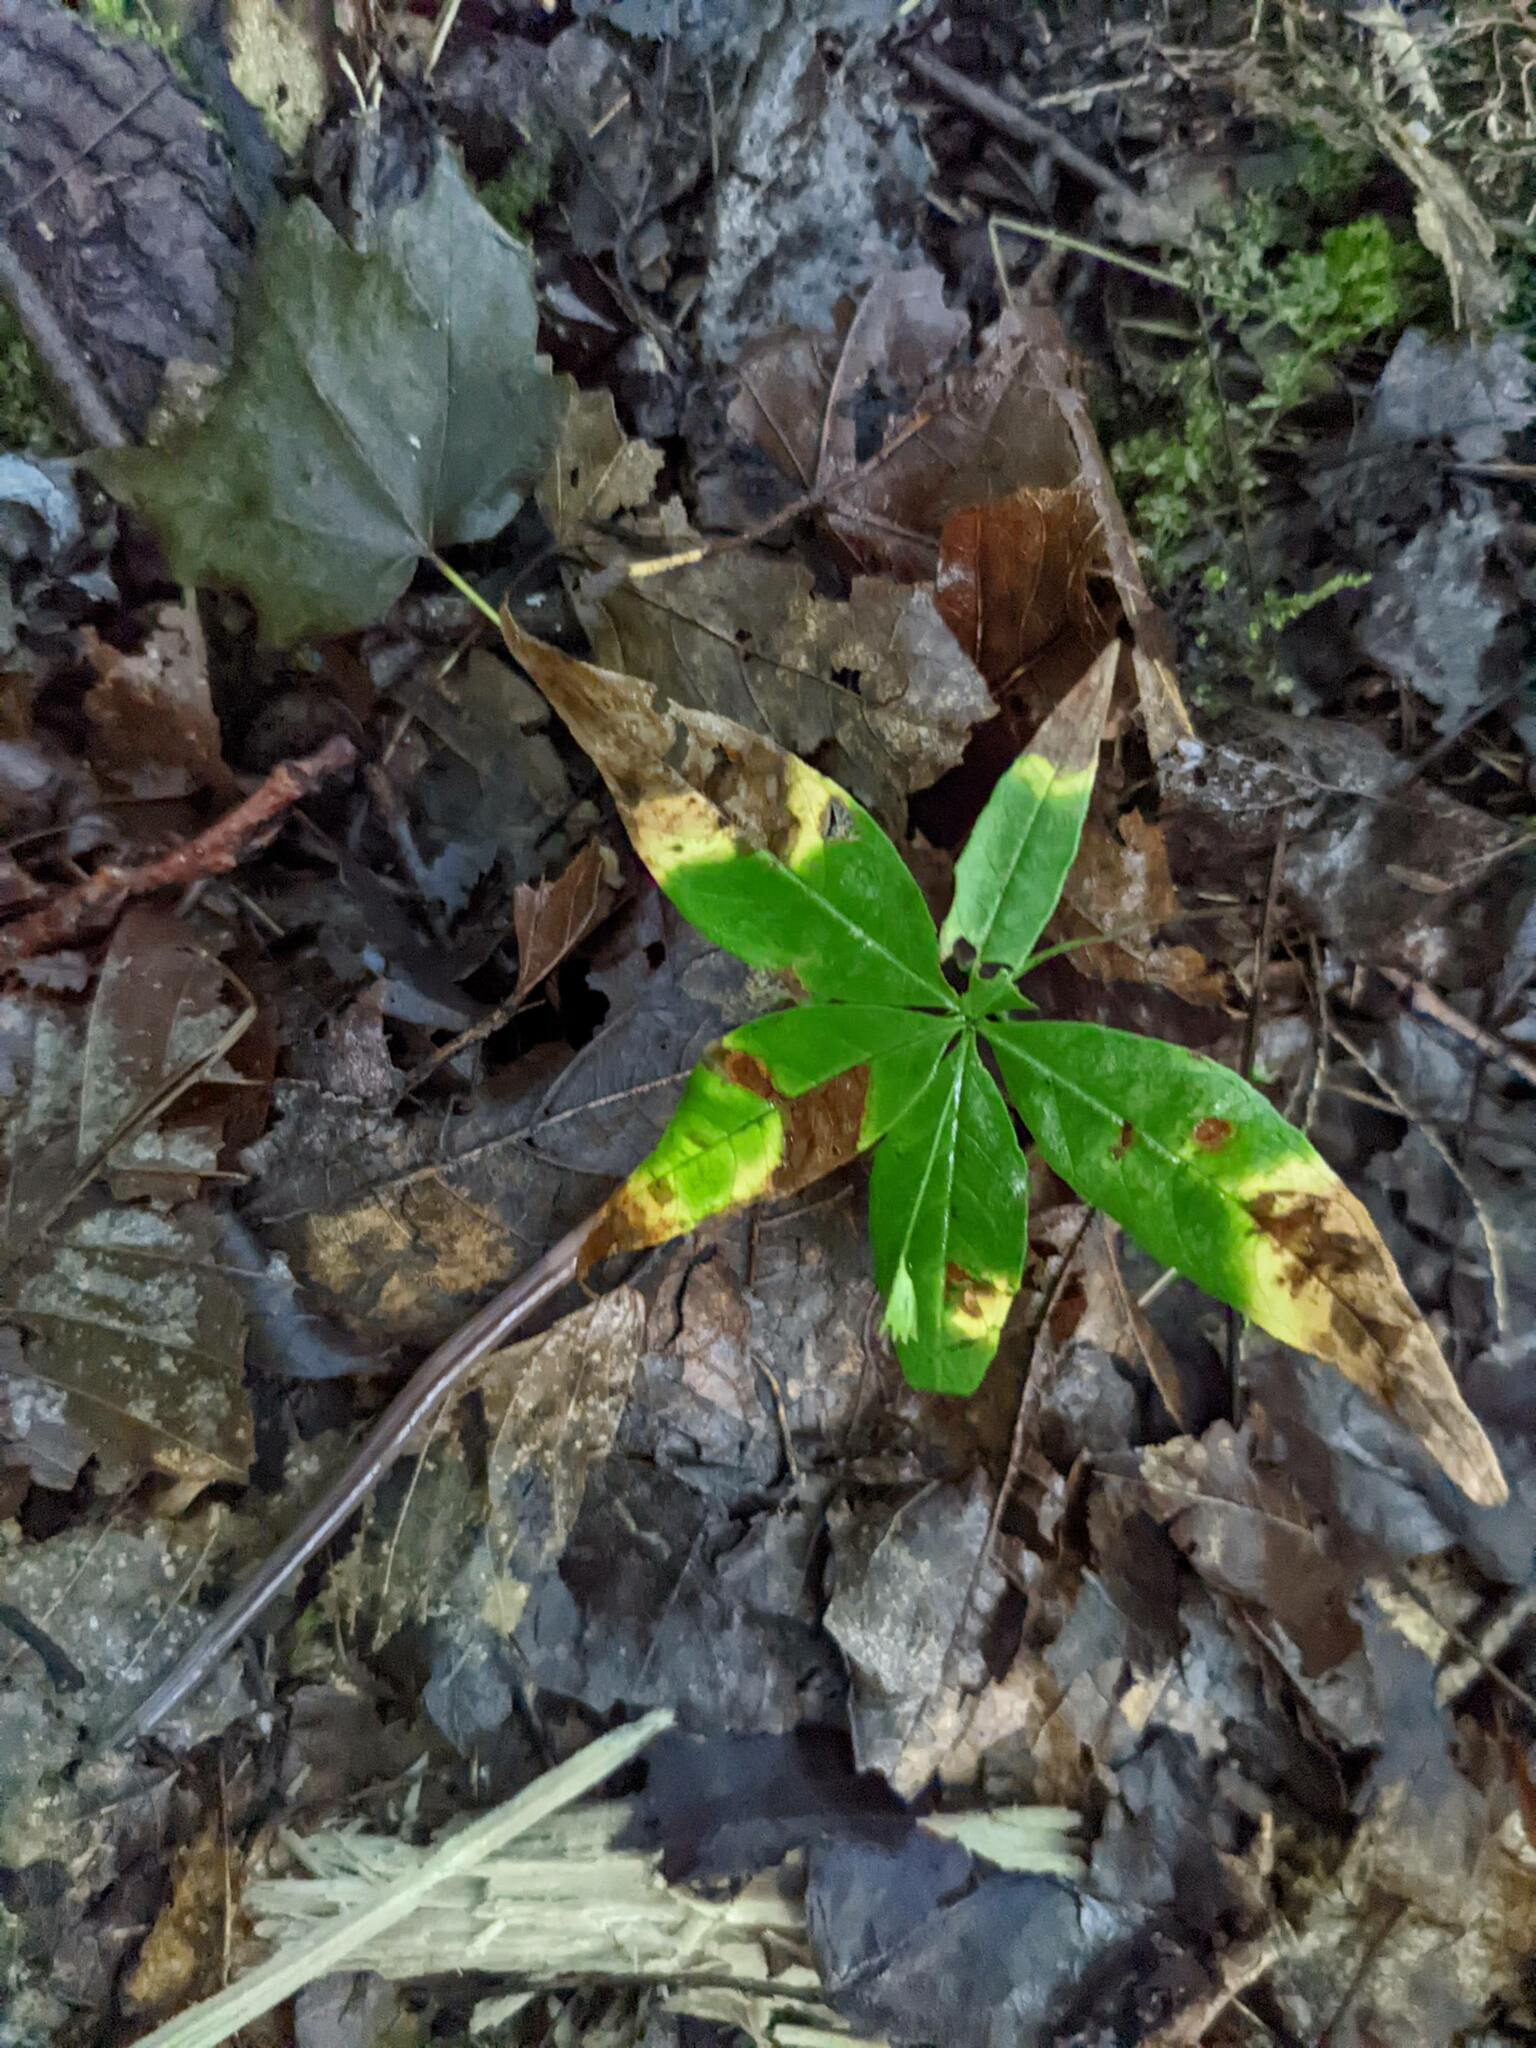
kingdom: Plantae
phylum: Tracheophyta
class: Magnoliopsida
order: Ericales
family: Primulaceae
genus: Lysimachia
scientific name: Lysimachia borealis
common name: American starflower
